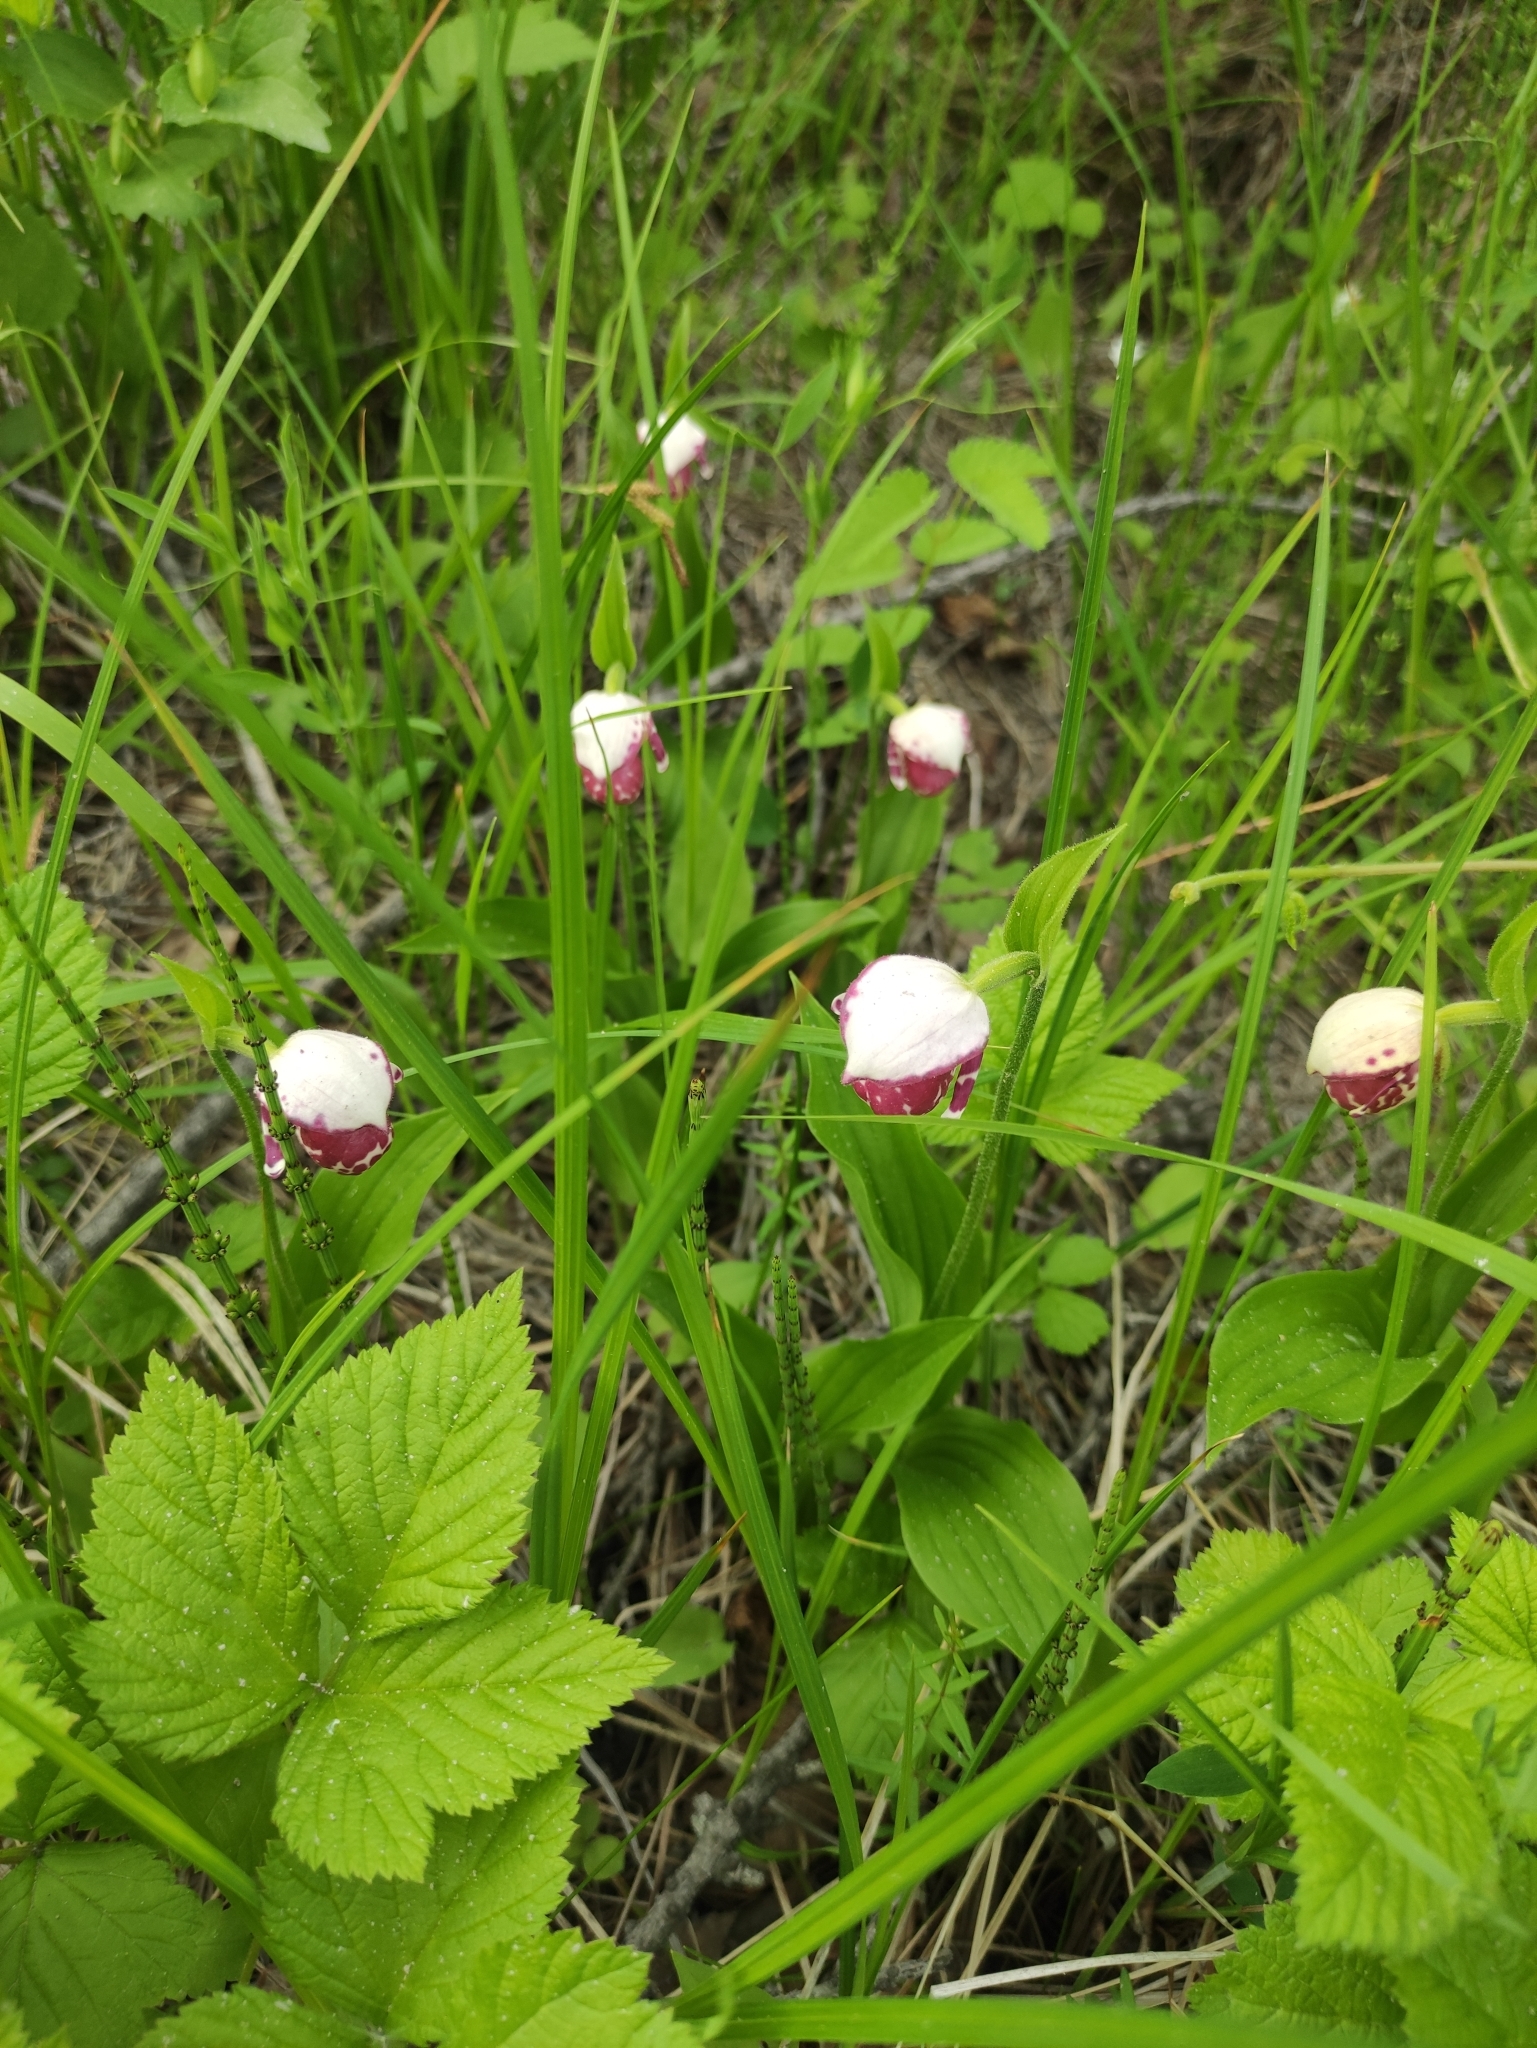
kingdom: Plantae
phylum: Tracheophyta
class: Liliopsida
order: Asparagales
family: Orchidaceae
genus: Cypripedium
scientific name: Cypripedium guttatum
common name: Pink lady slipper
